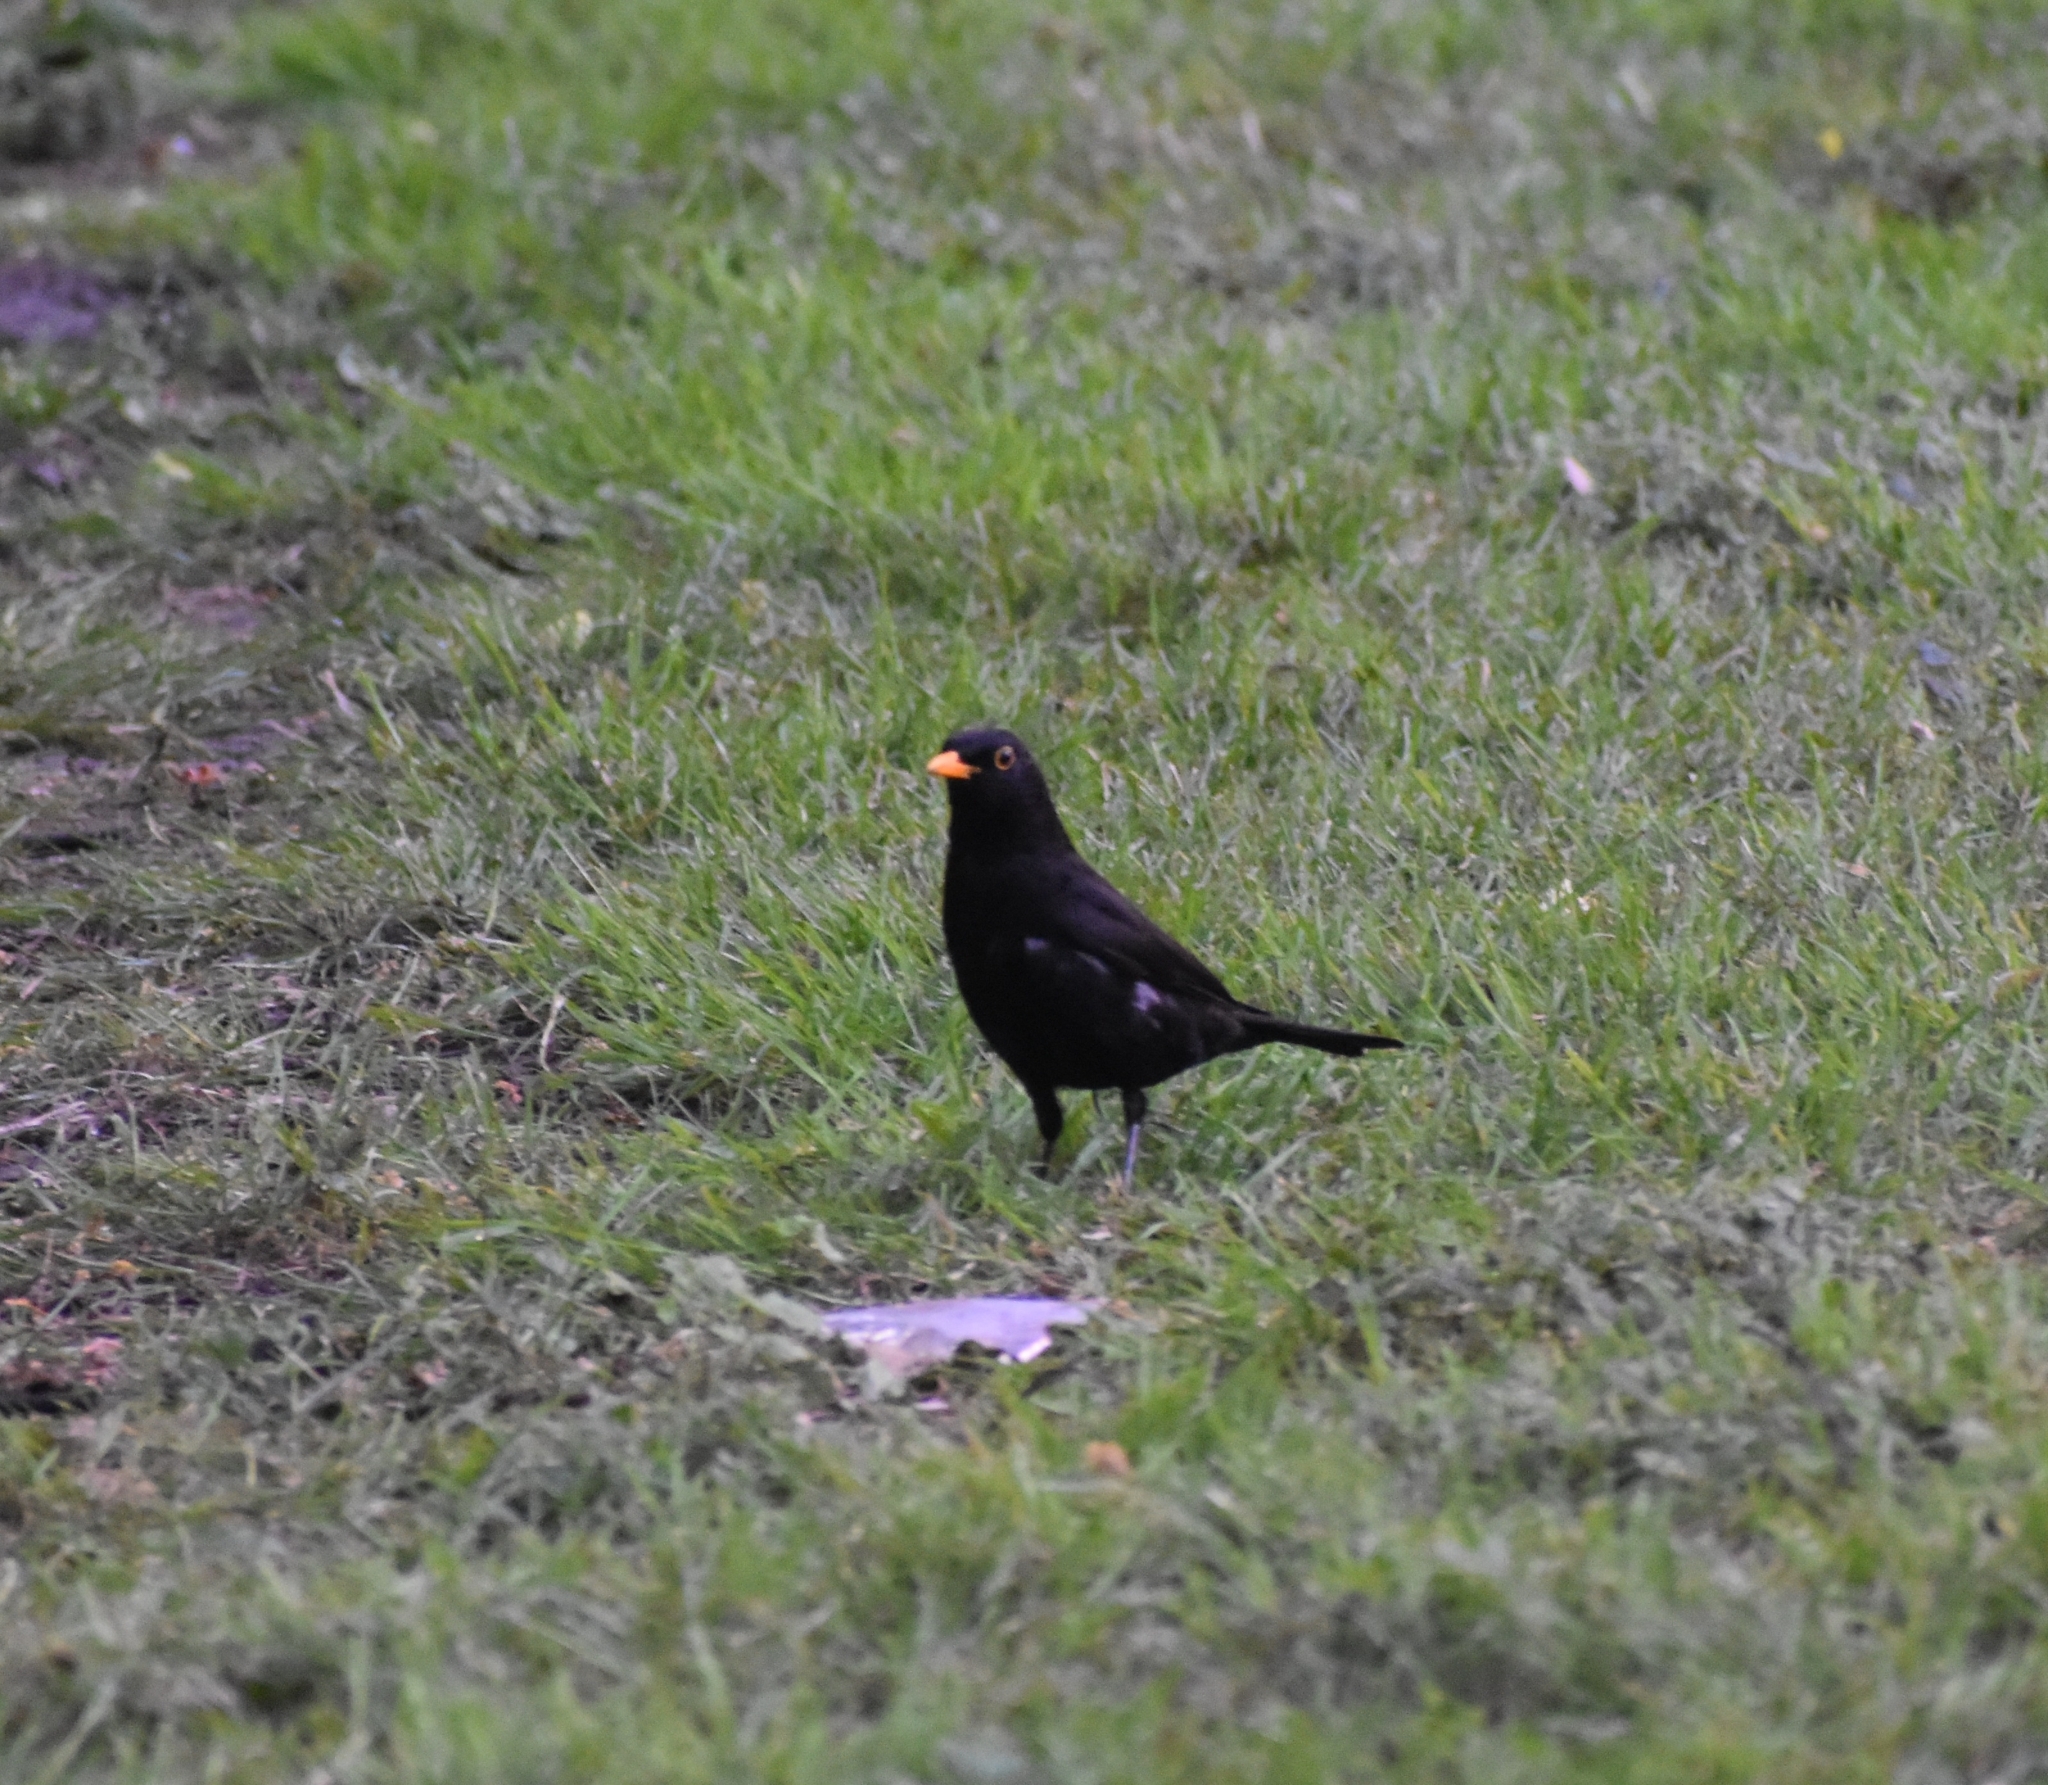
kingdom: Animalia
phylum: Chordata
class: Aves
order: Passeriformes
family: Turdidae
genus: Turdus
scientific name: Turdus merula
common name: Common blackbird
